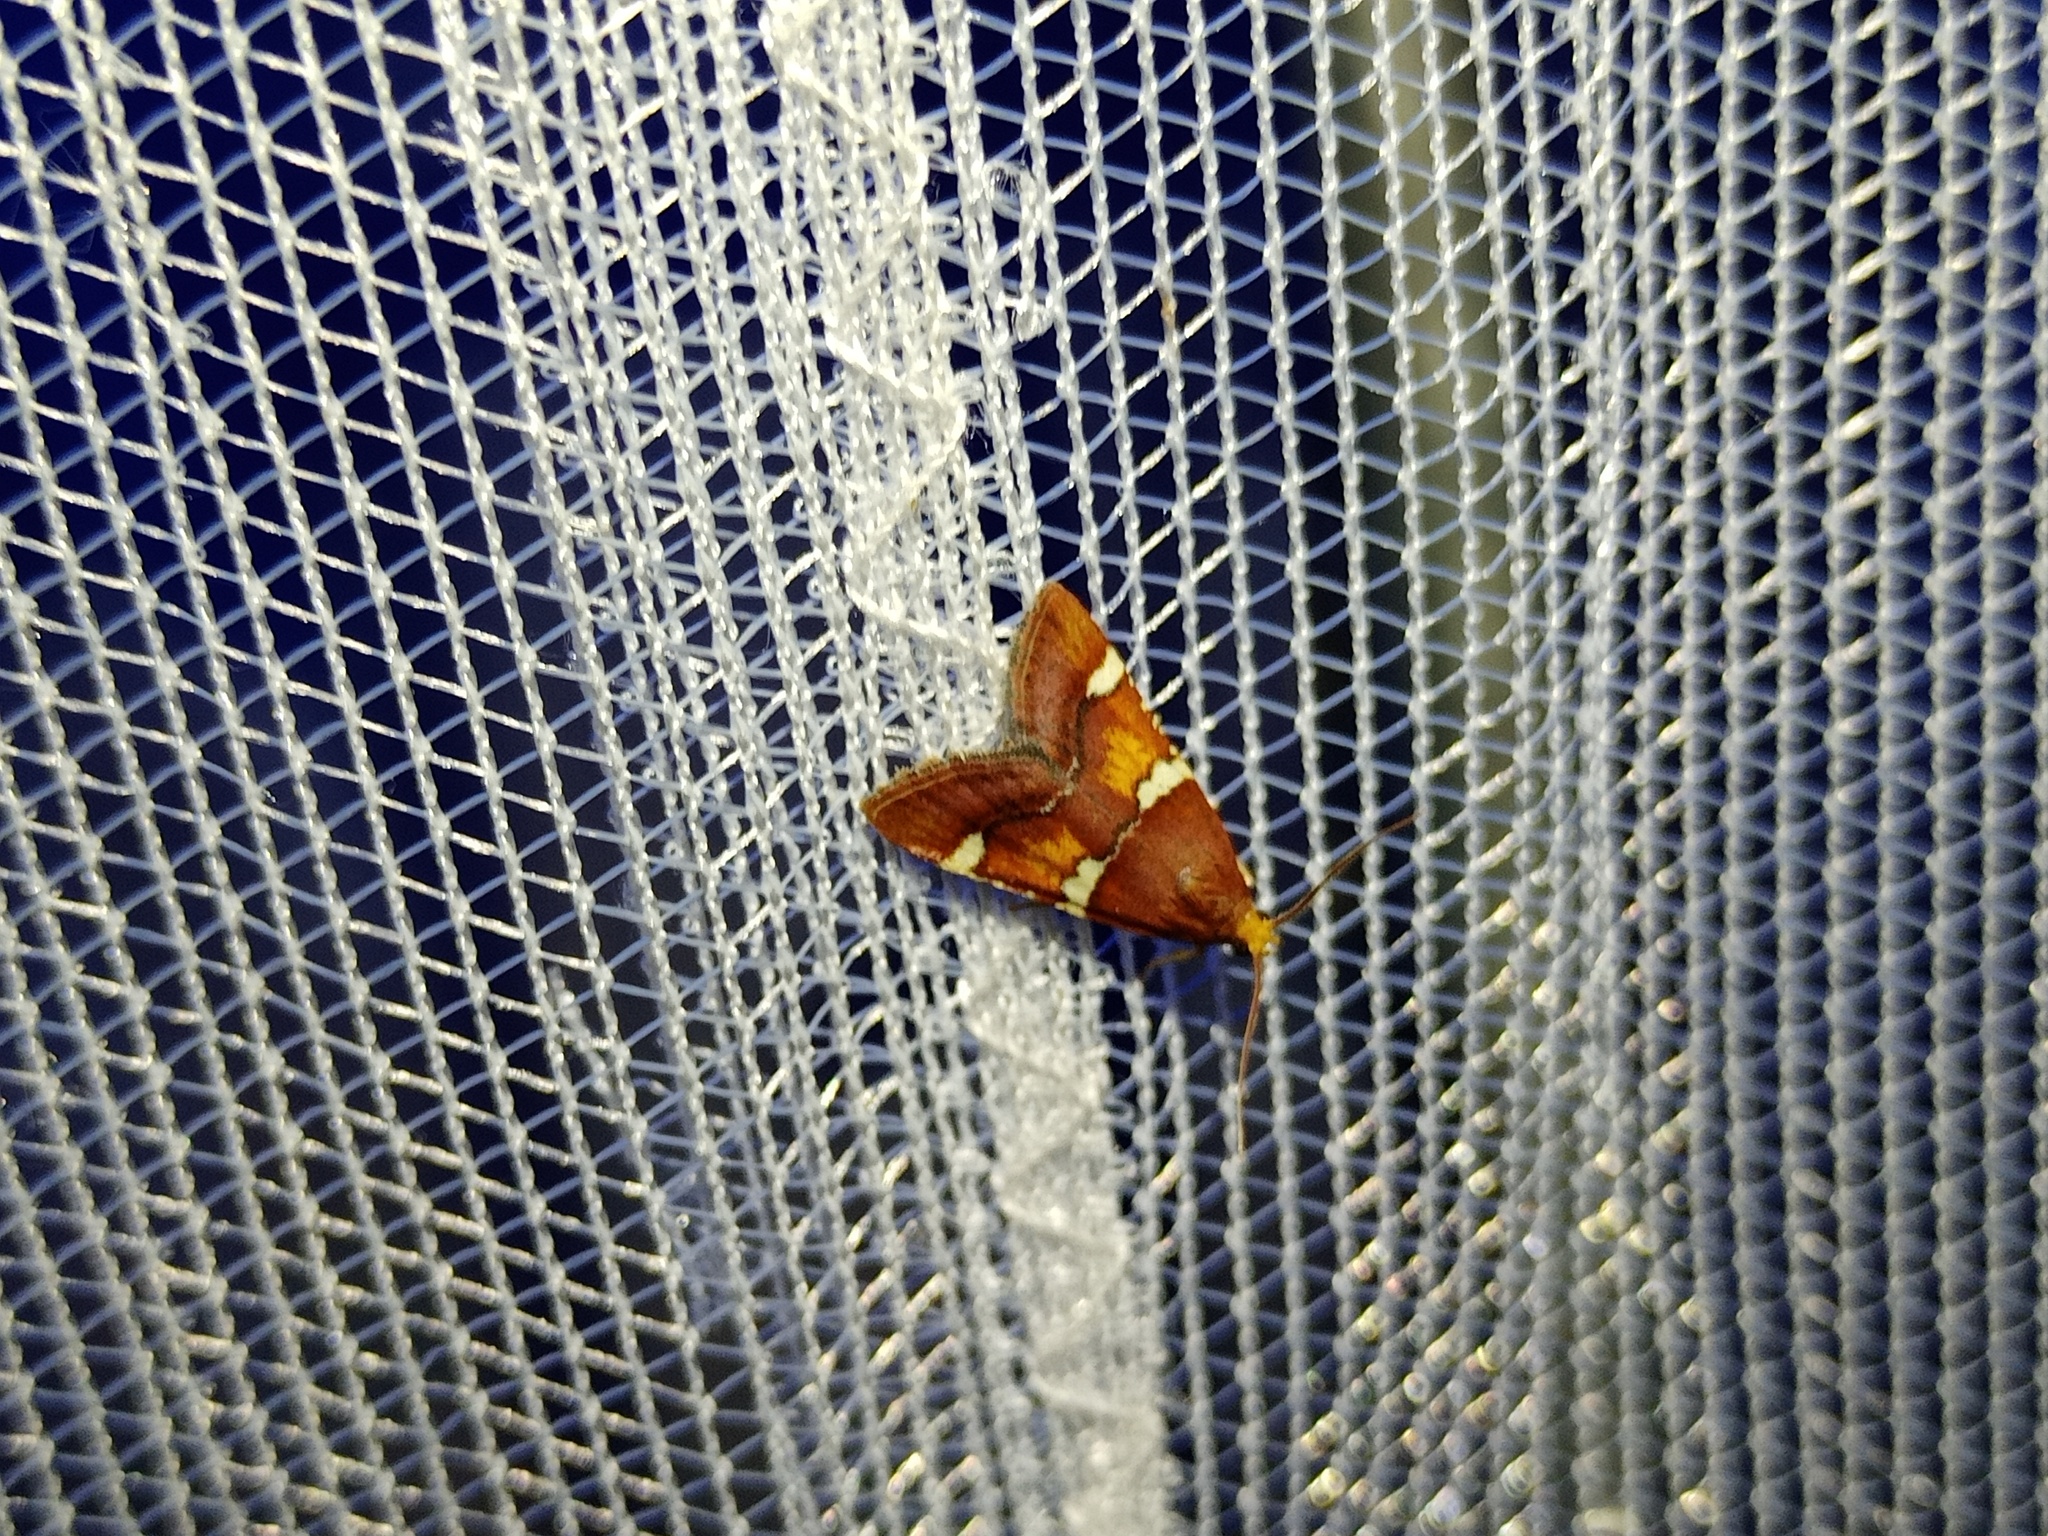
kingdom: Animalia
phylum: Arthropoda
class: Insecta
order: Lepidoptera
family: Pyralidae
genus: Pyralis
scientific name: Pyralis regalis
